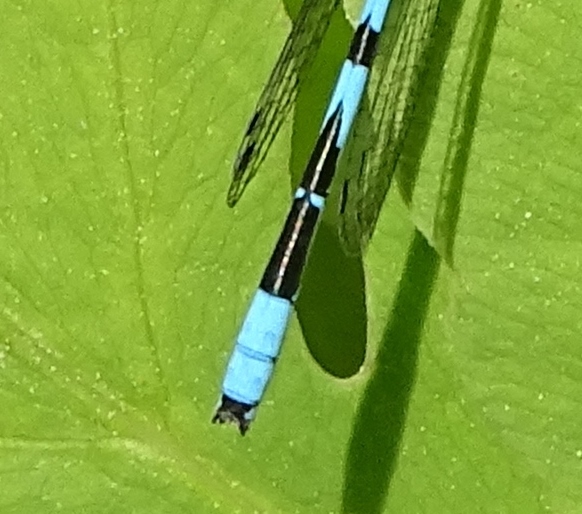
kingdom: Animalia
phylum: Arthropoda
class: Insecta
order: Odonata
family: Coenagrionidae
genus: Enallagma
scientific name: Enallagma ebrium
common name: Marsh bluet
